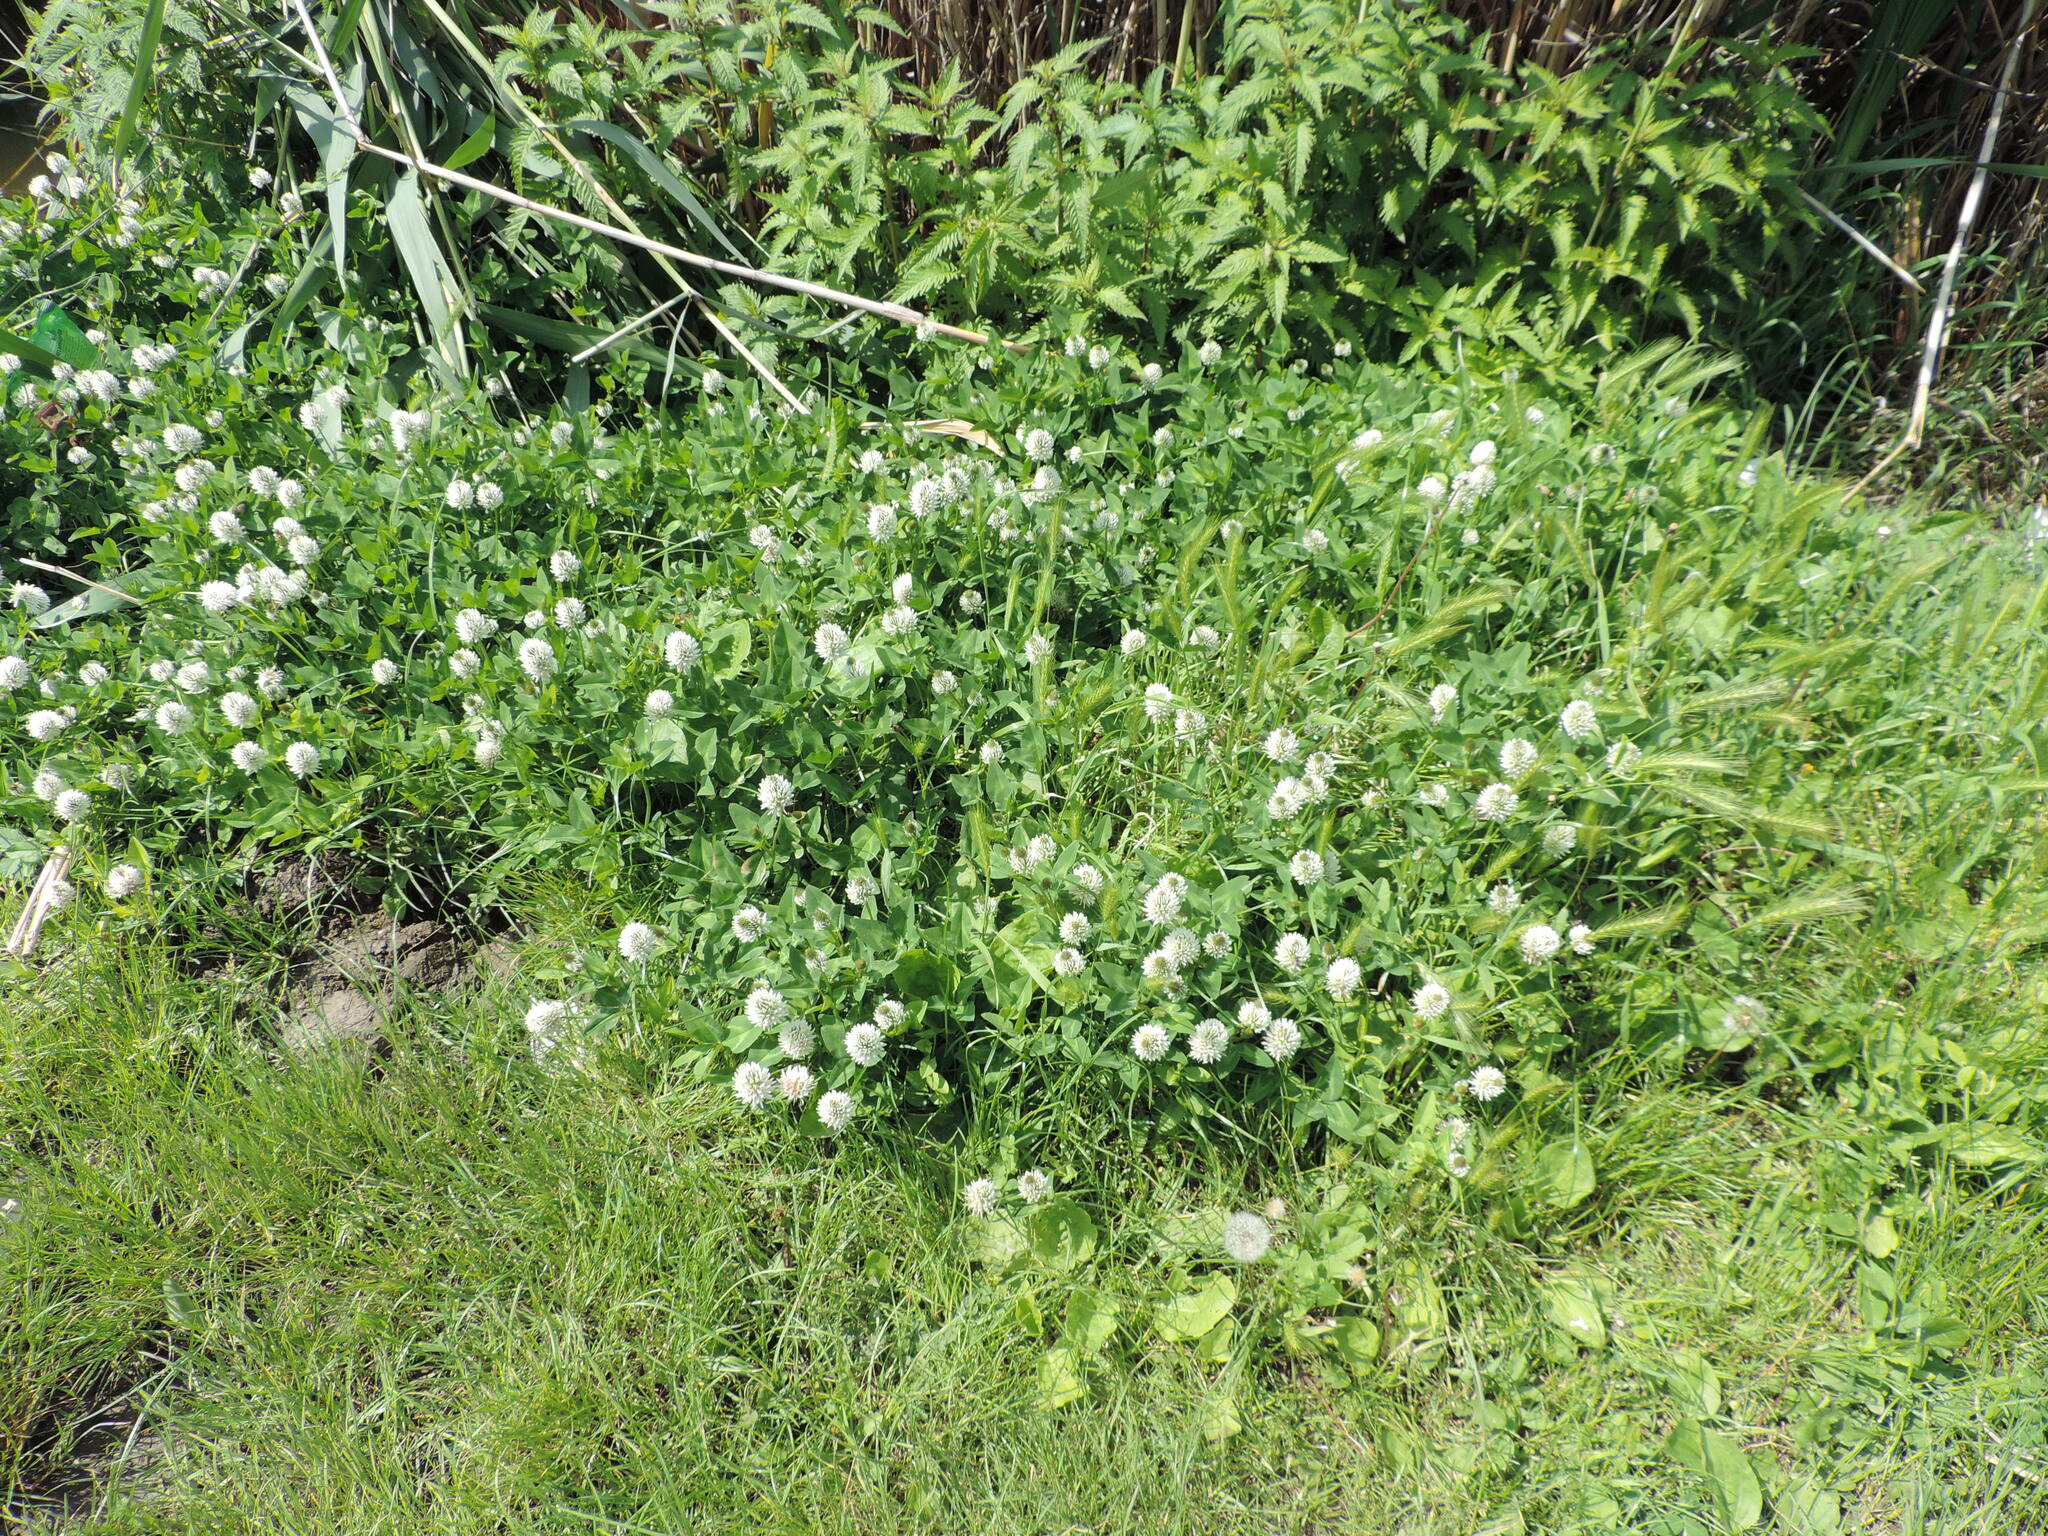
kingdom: Plantae
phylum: Tracheophyta
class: Magnoliopsida
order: Fabales
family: Fabaceae
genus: Trifolium
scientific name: Trifolium ambiguum
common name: Kura clover
